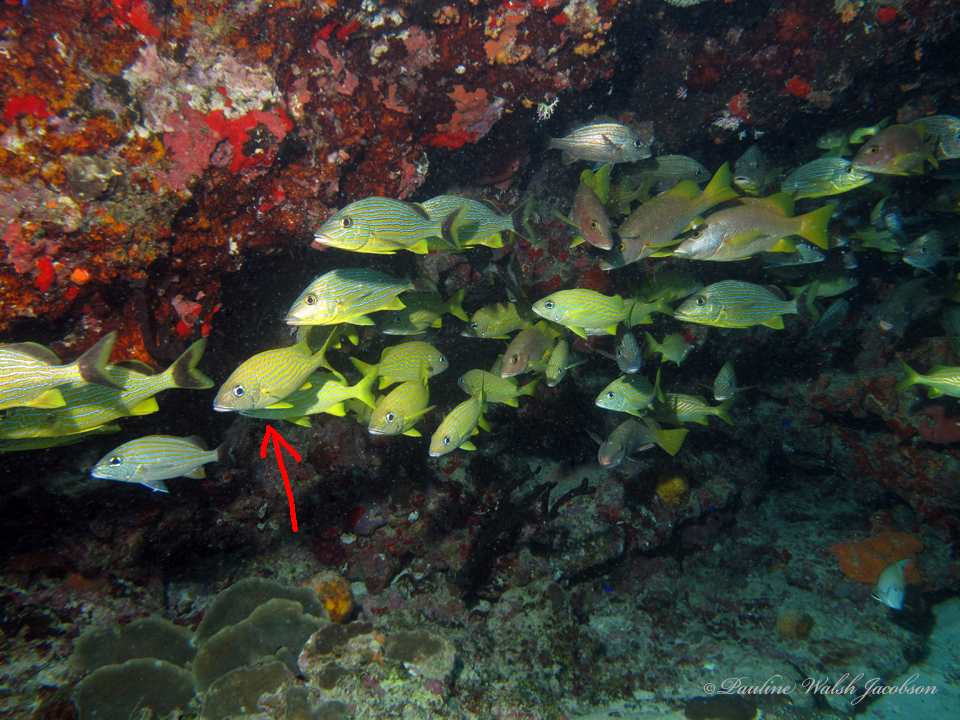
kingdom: Animalia
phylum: Chordata
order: Perciformes
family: Haemulidae
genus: Haemulon
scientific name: Haemulon flavolineatum
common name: French grunt
